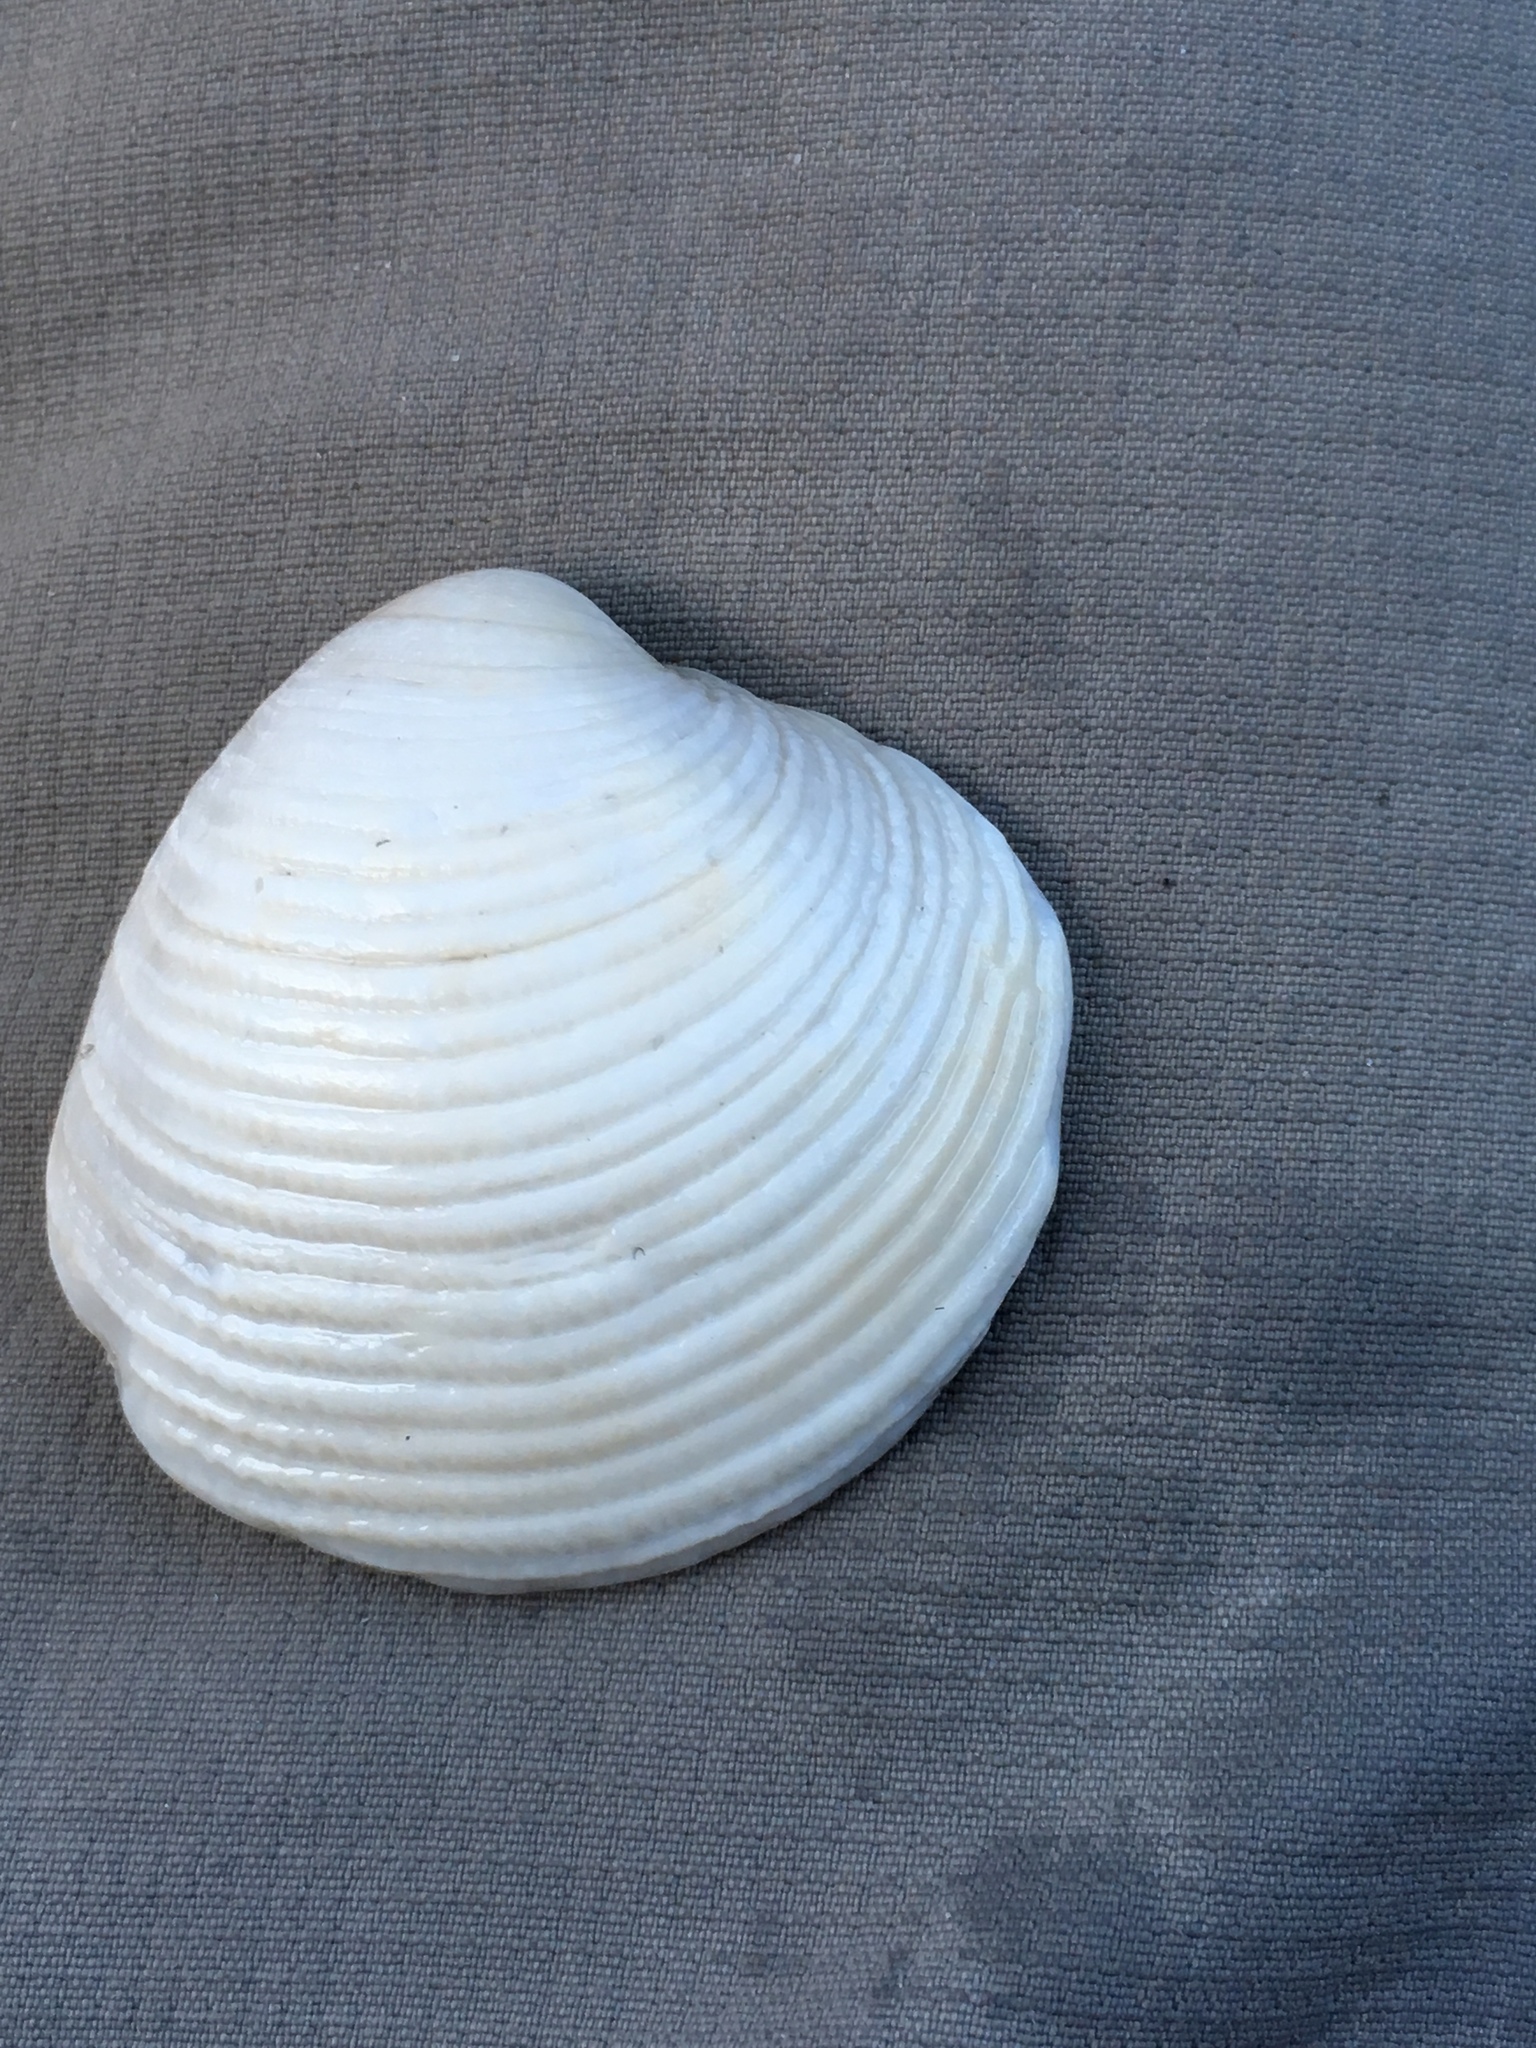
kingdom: Animalia
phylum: Mollusca
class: Bivalvia
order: Venerida
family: Veneridae
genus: Chionopsis
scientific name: Chionopsis intapurpurea
